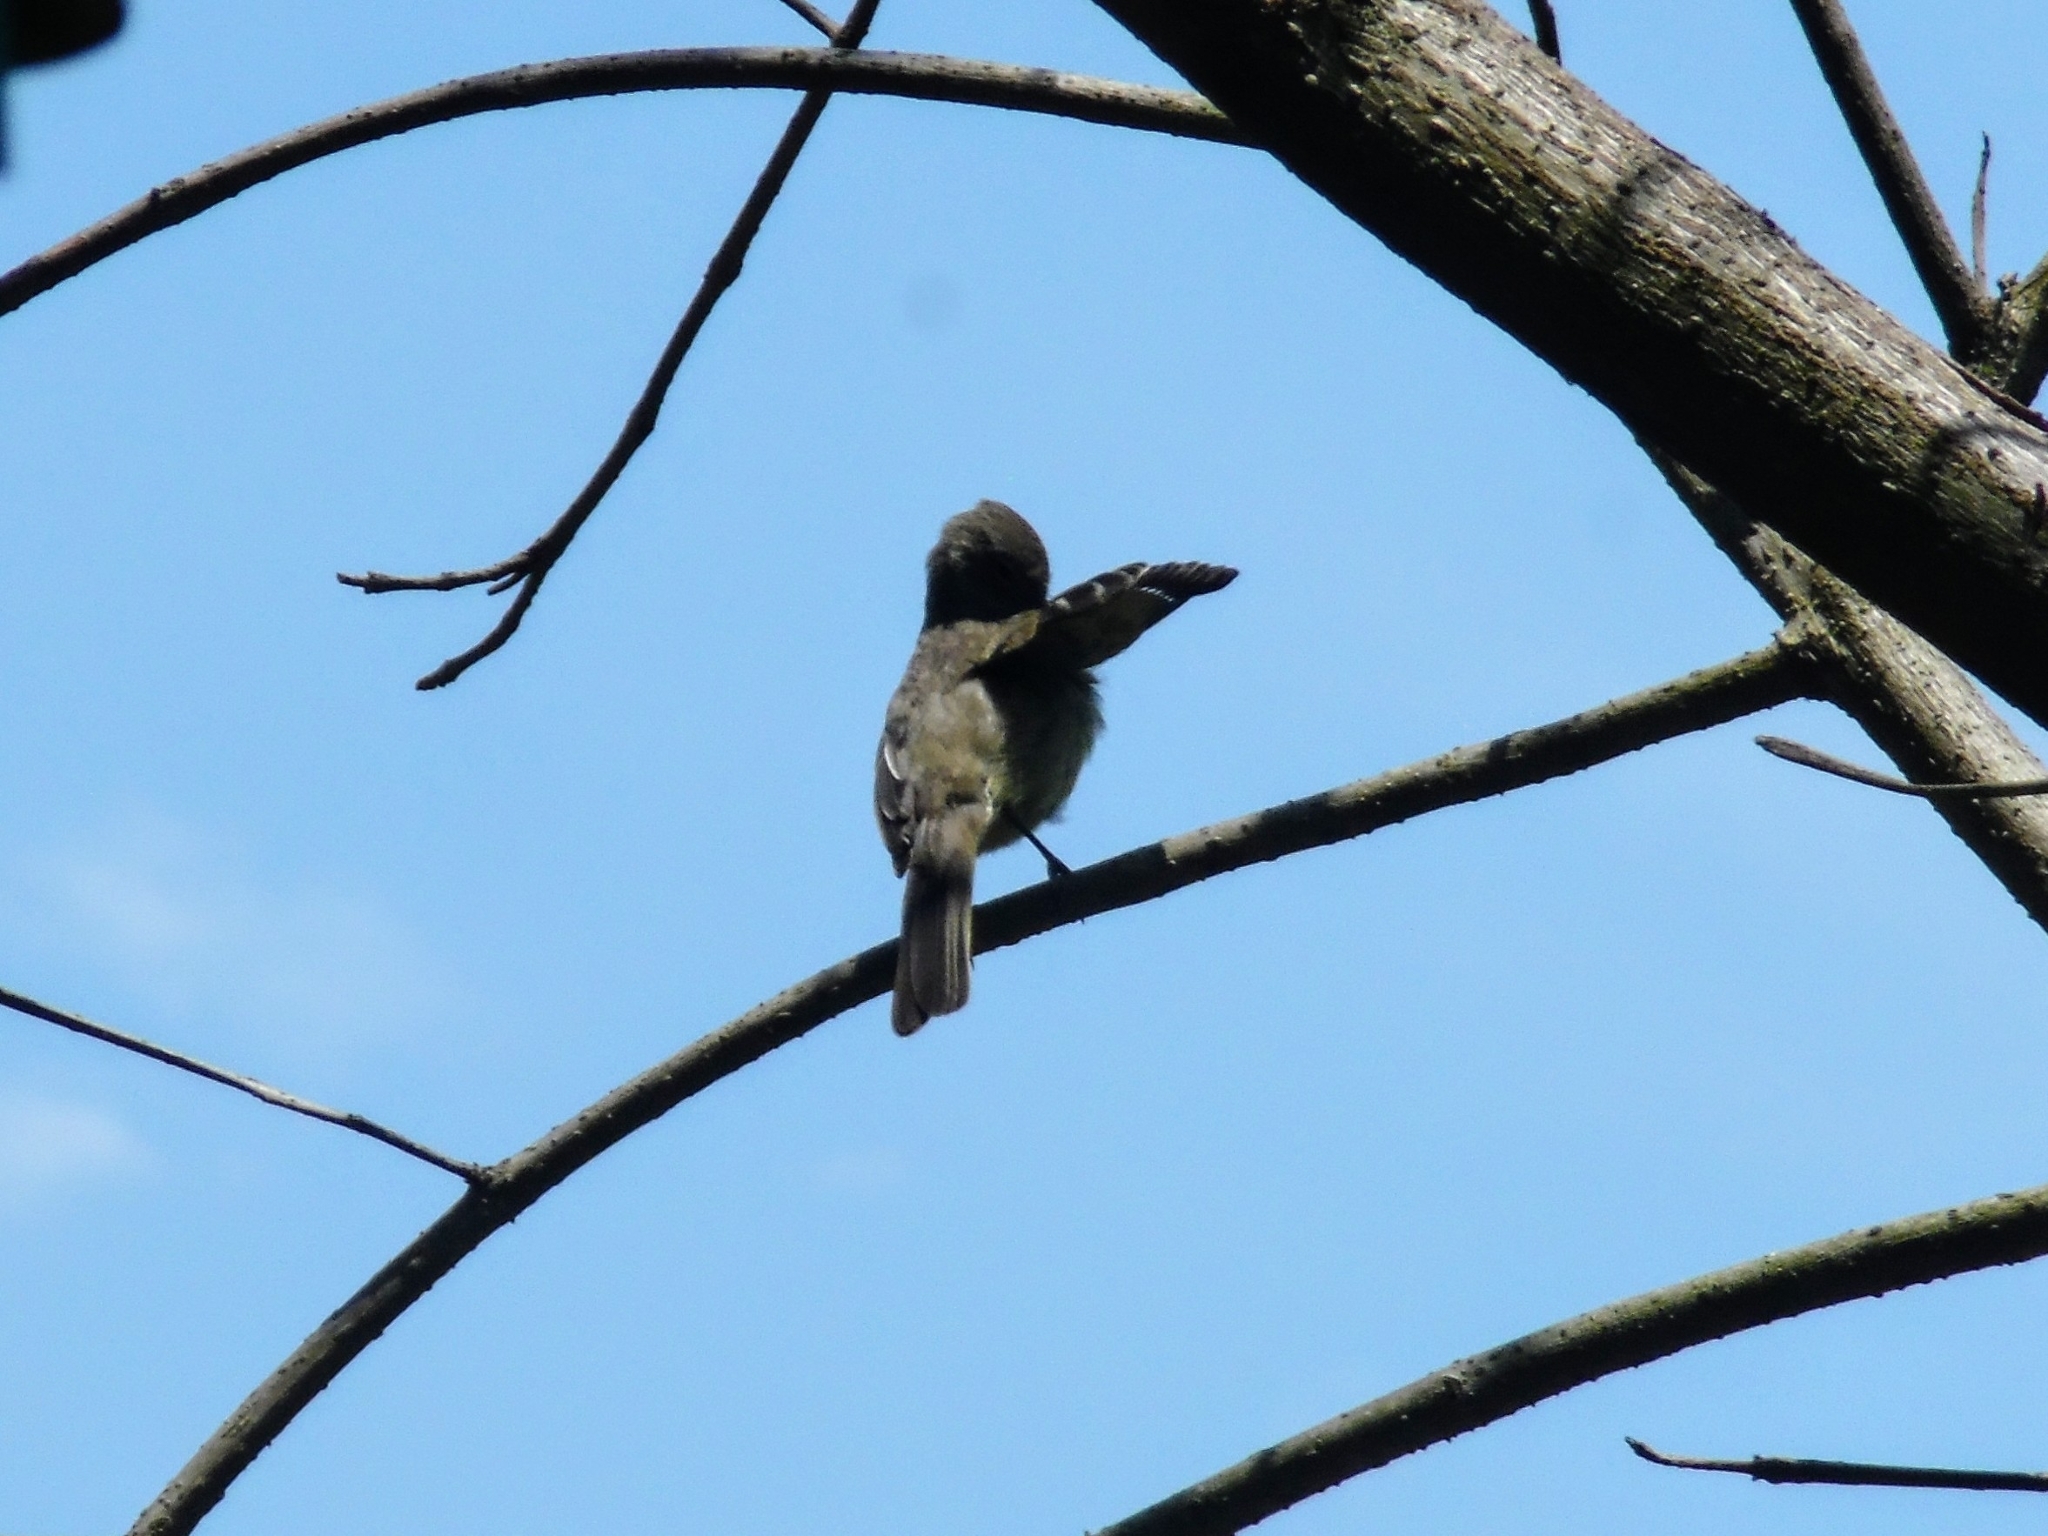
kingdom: Animalia
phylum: Chordata
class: Aves
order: Passeriformes
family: Tyrannidae
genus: Elaenia
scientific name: Elaenia
